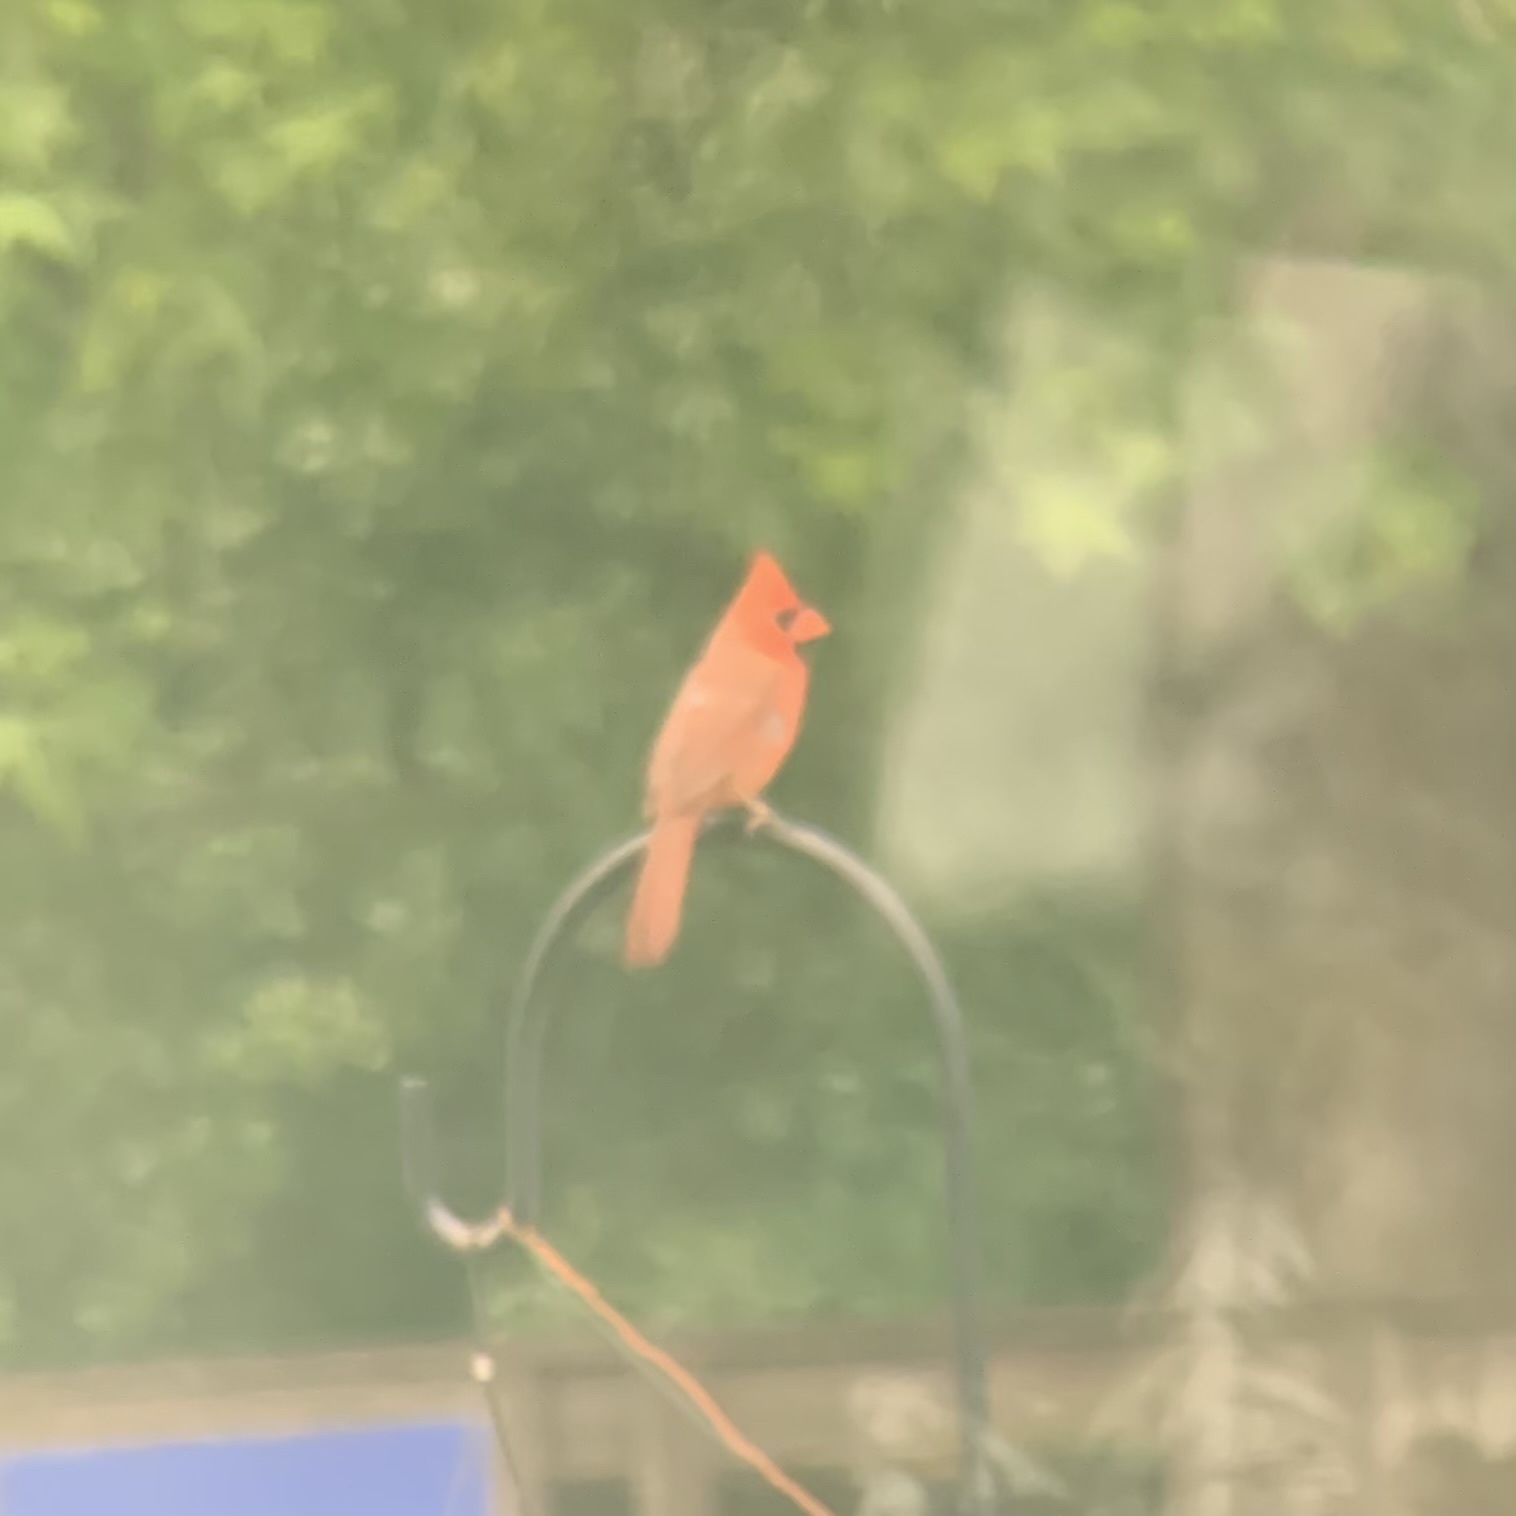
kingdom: Animalia
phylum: Chordata
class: Aves
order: Passeriformes
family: Cardinalidae
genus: Cardinalis
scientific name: Cardinalis cardinalis
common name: Northern cardinal
